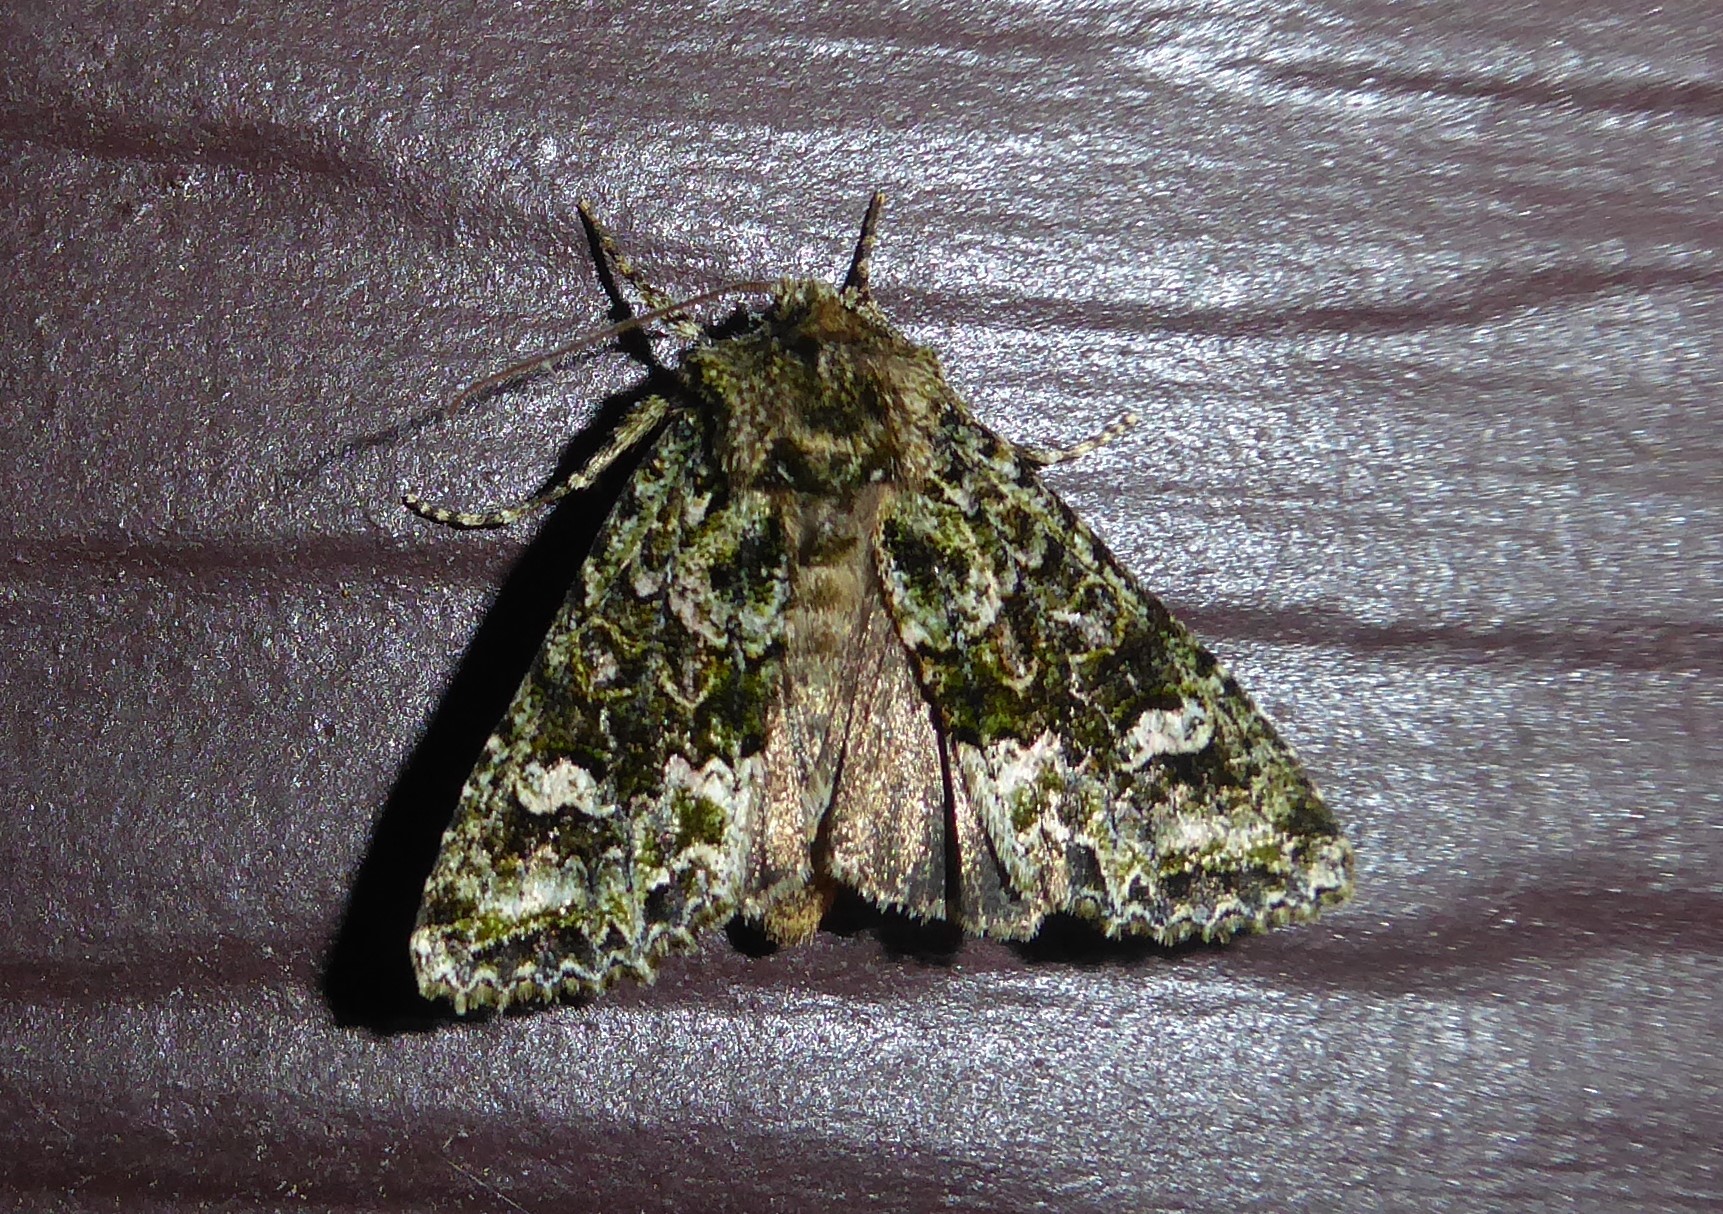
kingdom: Animalia
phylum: Arthropoda
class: Insecta
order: Lepidoptera
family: Noctuidae
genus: Ichneutica
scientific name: Ichneutica
